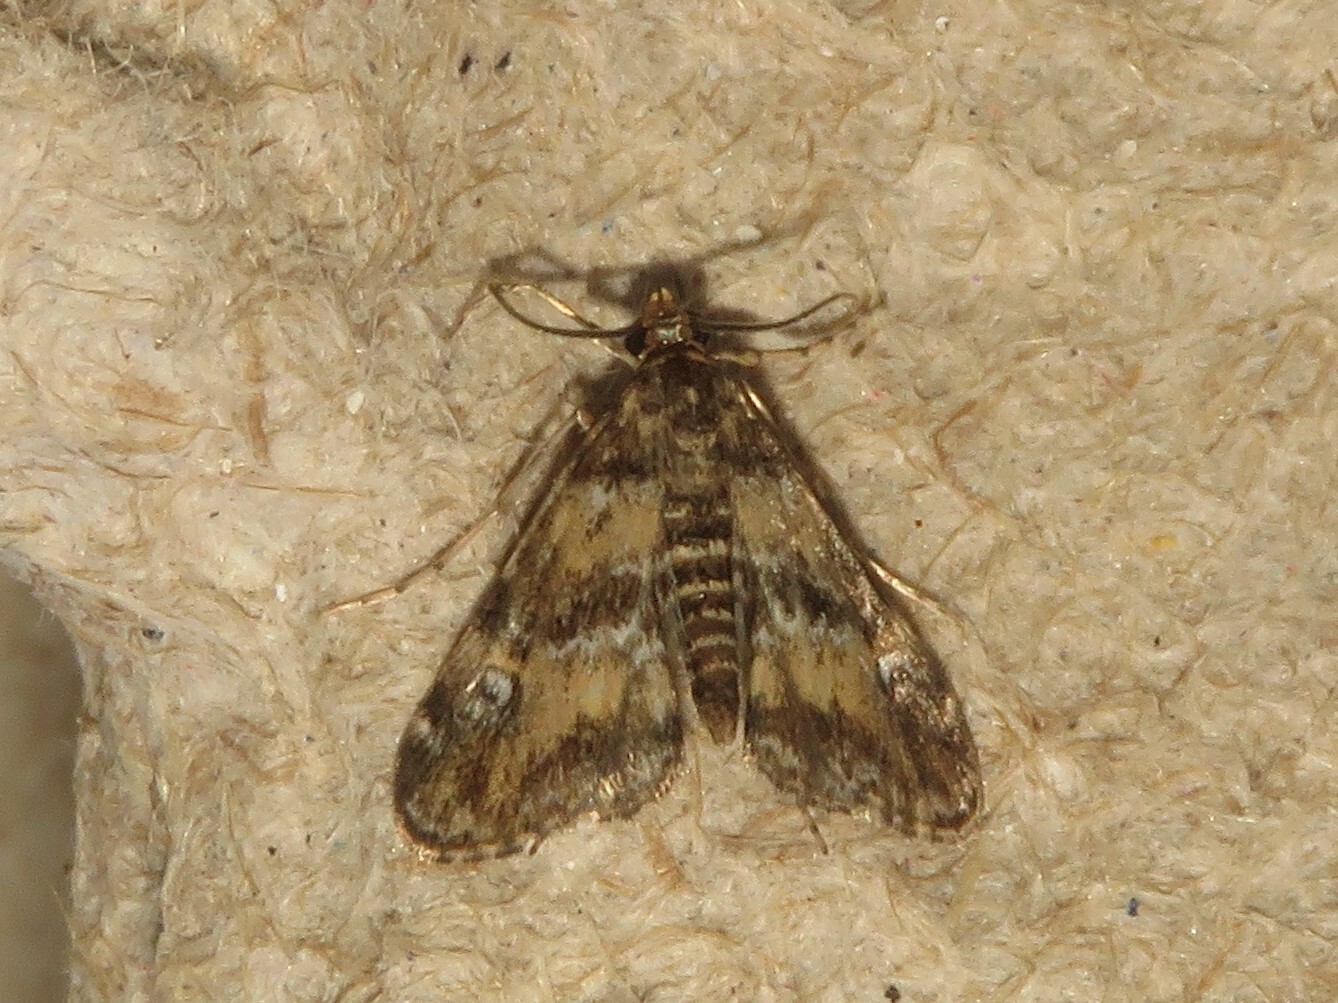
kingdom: Animalia
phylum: Arthropoda
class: Insecta
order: Lepidoptera
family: Crambidae
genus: Elophila
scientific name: Elophila obliteralis
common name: Waterlily leafcutter moth
